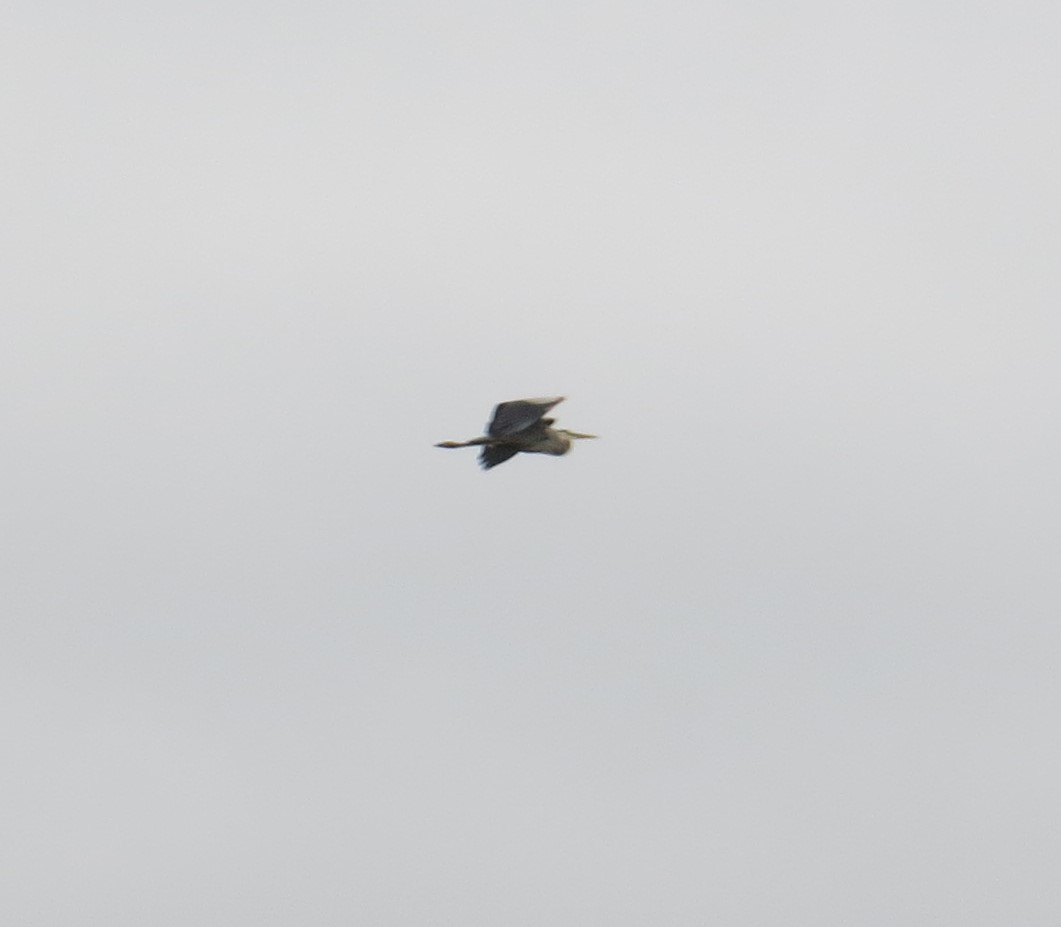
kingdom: Animalia
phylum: Chordata
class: Aves
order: Pelecaniformes
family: Ardeidae
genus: Ardea
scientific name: Ardea herodias
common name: Great blue heron
